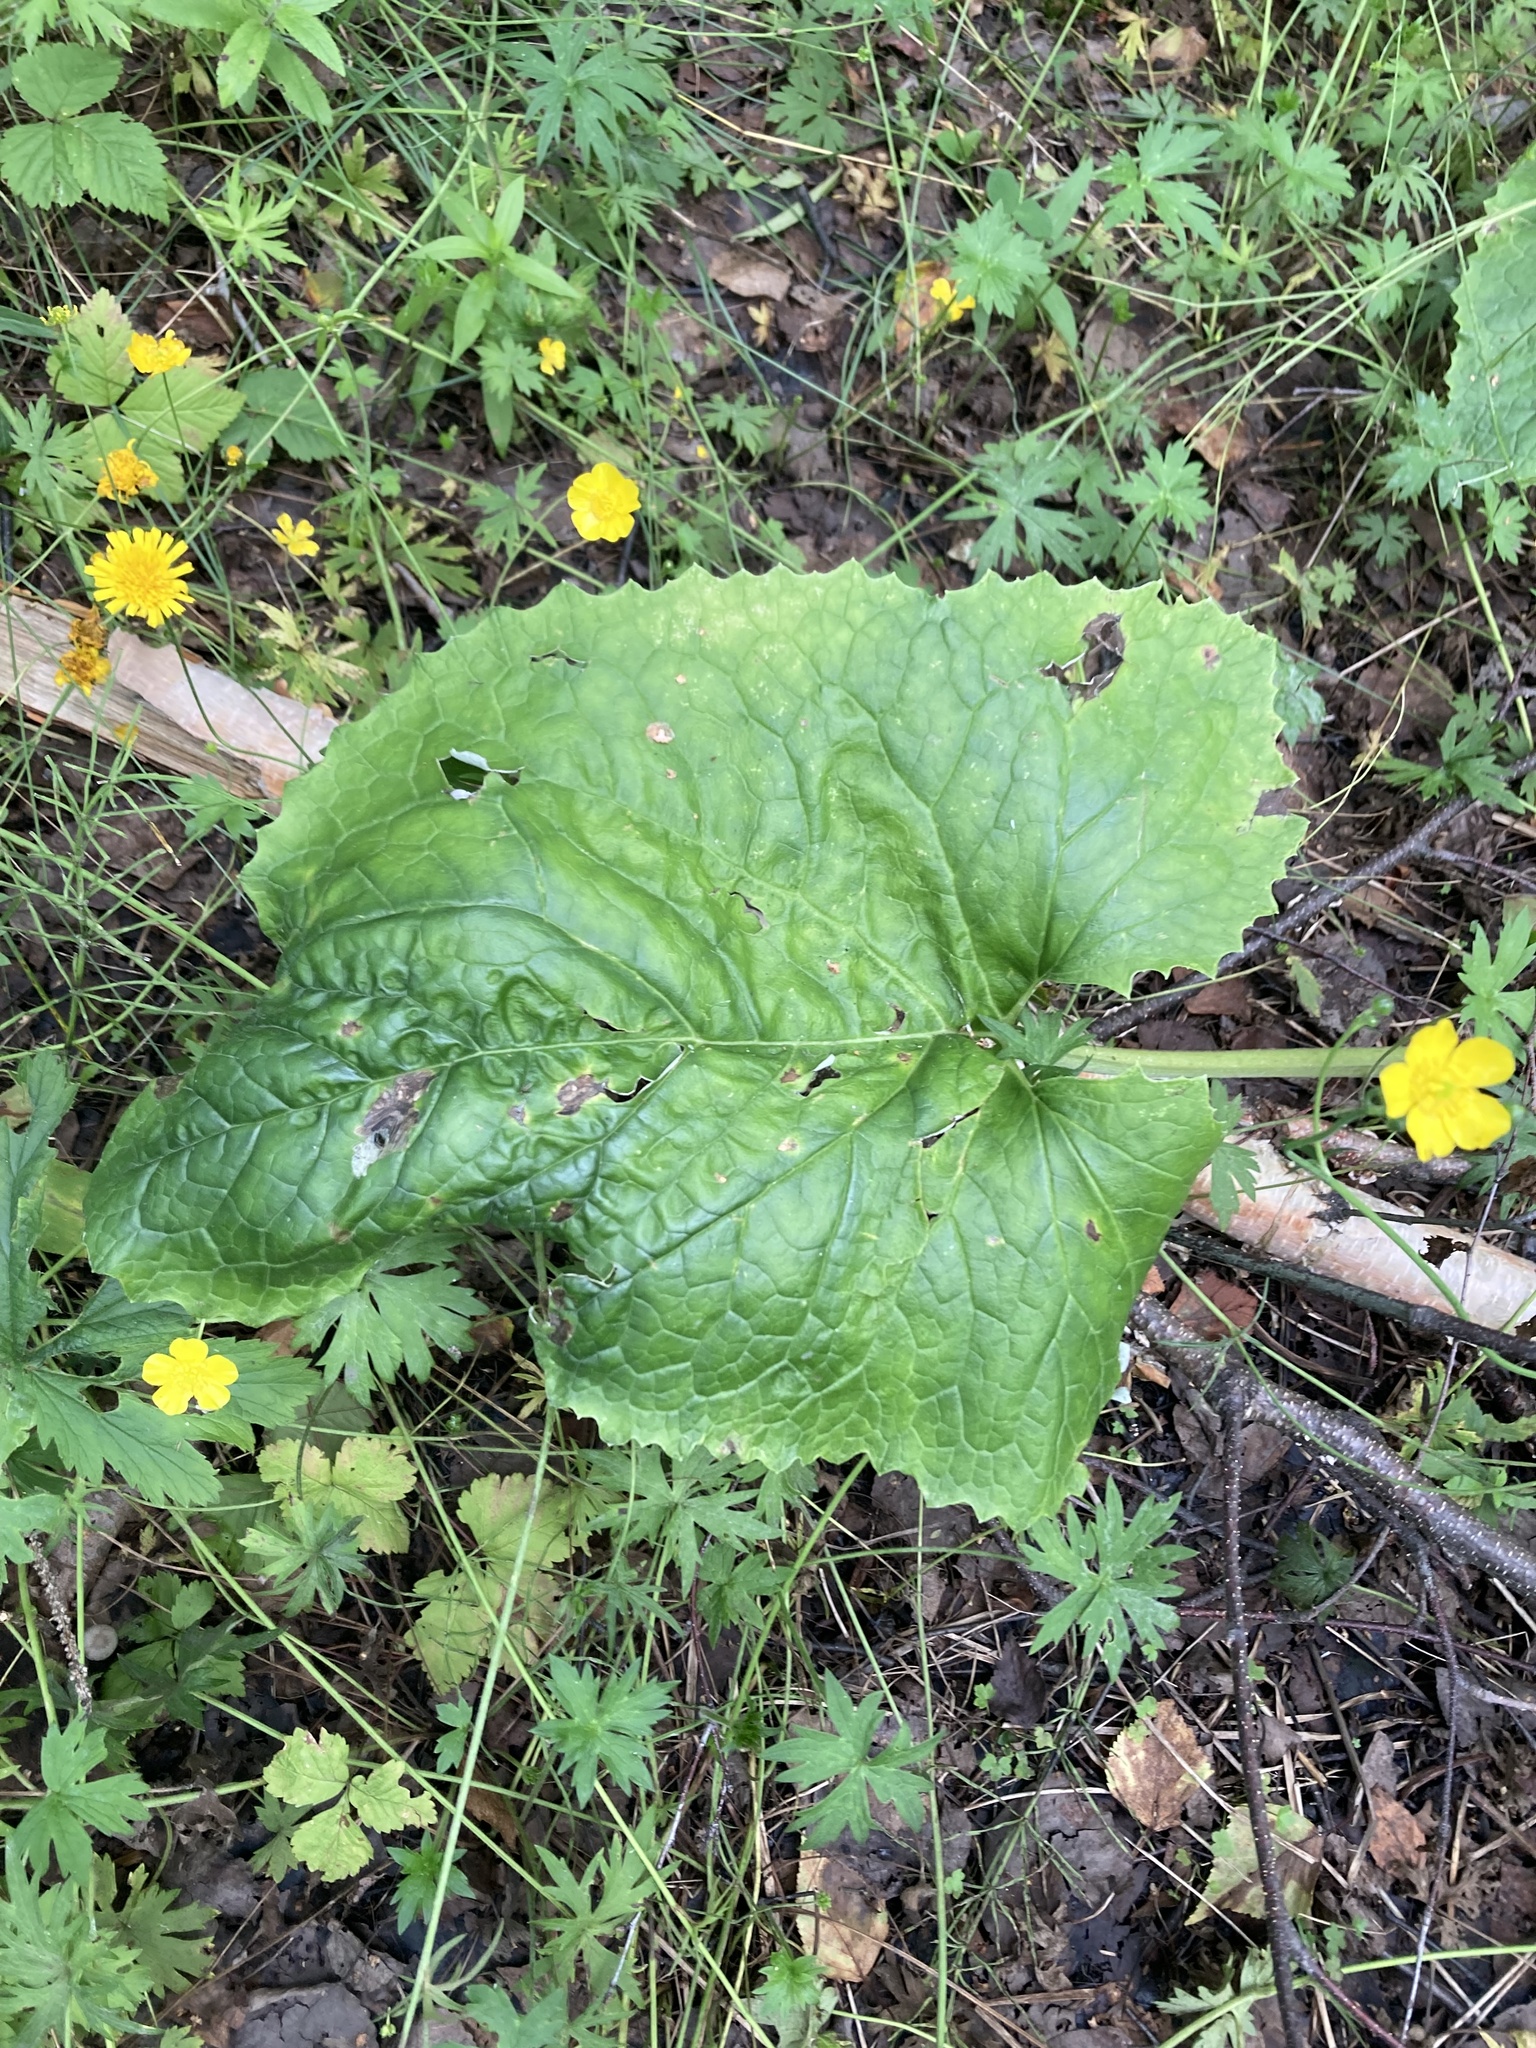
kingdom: Plantae
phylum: Tracheophyta
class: Magnoliopsida
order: Asterales
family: Asteraceae
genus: Petasites
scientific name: Petasites frigidus
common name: Arctic butterbur
